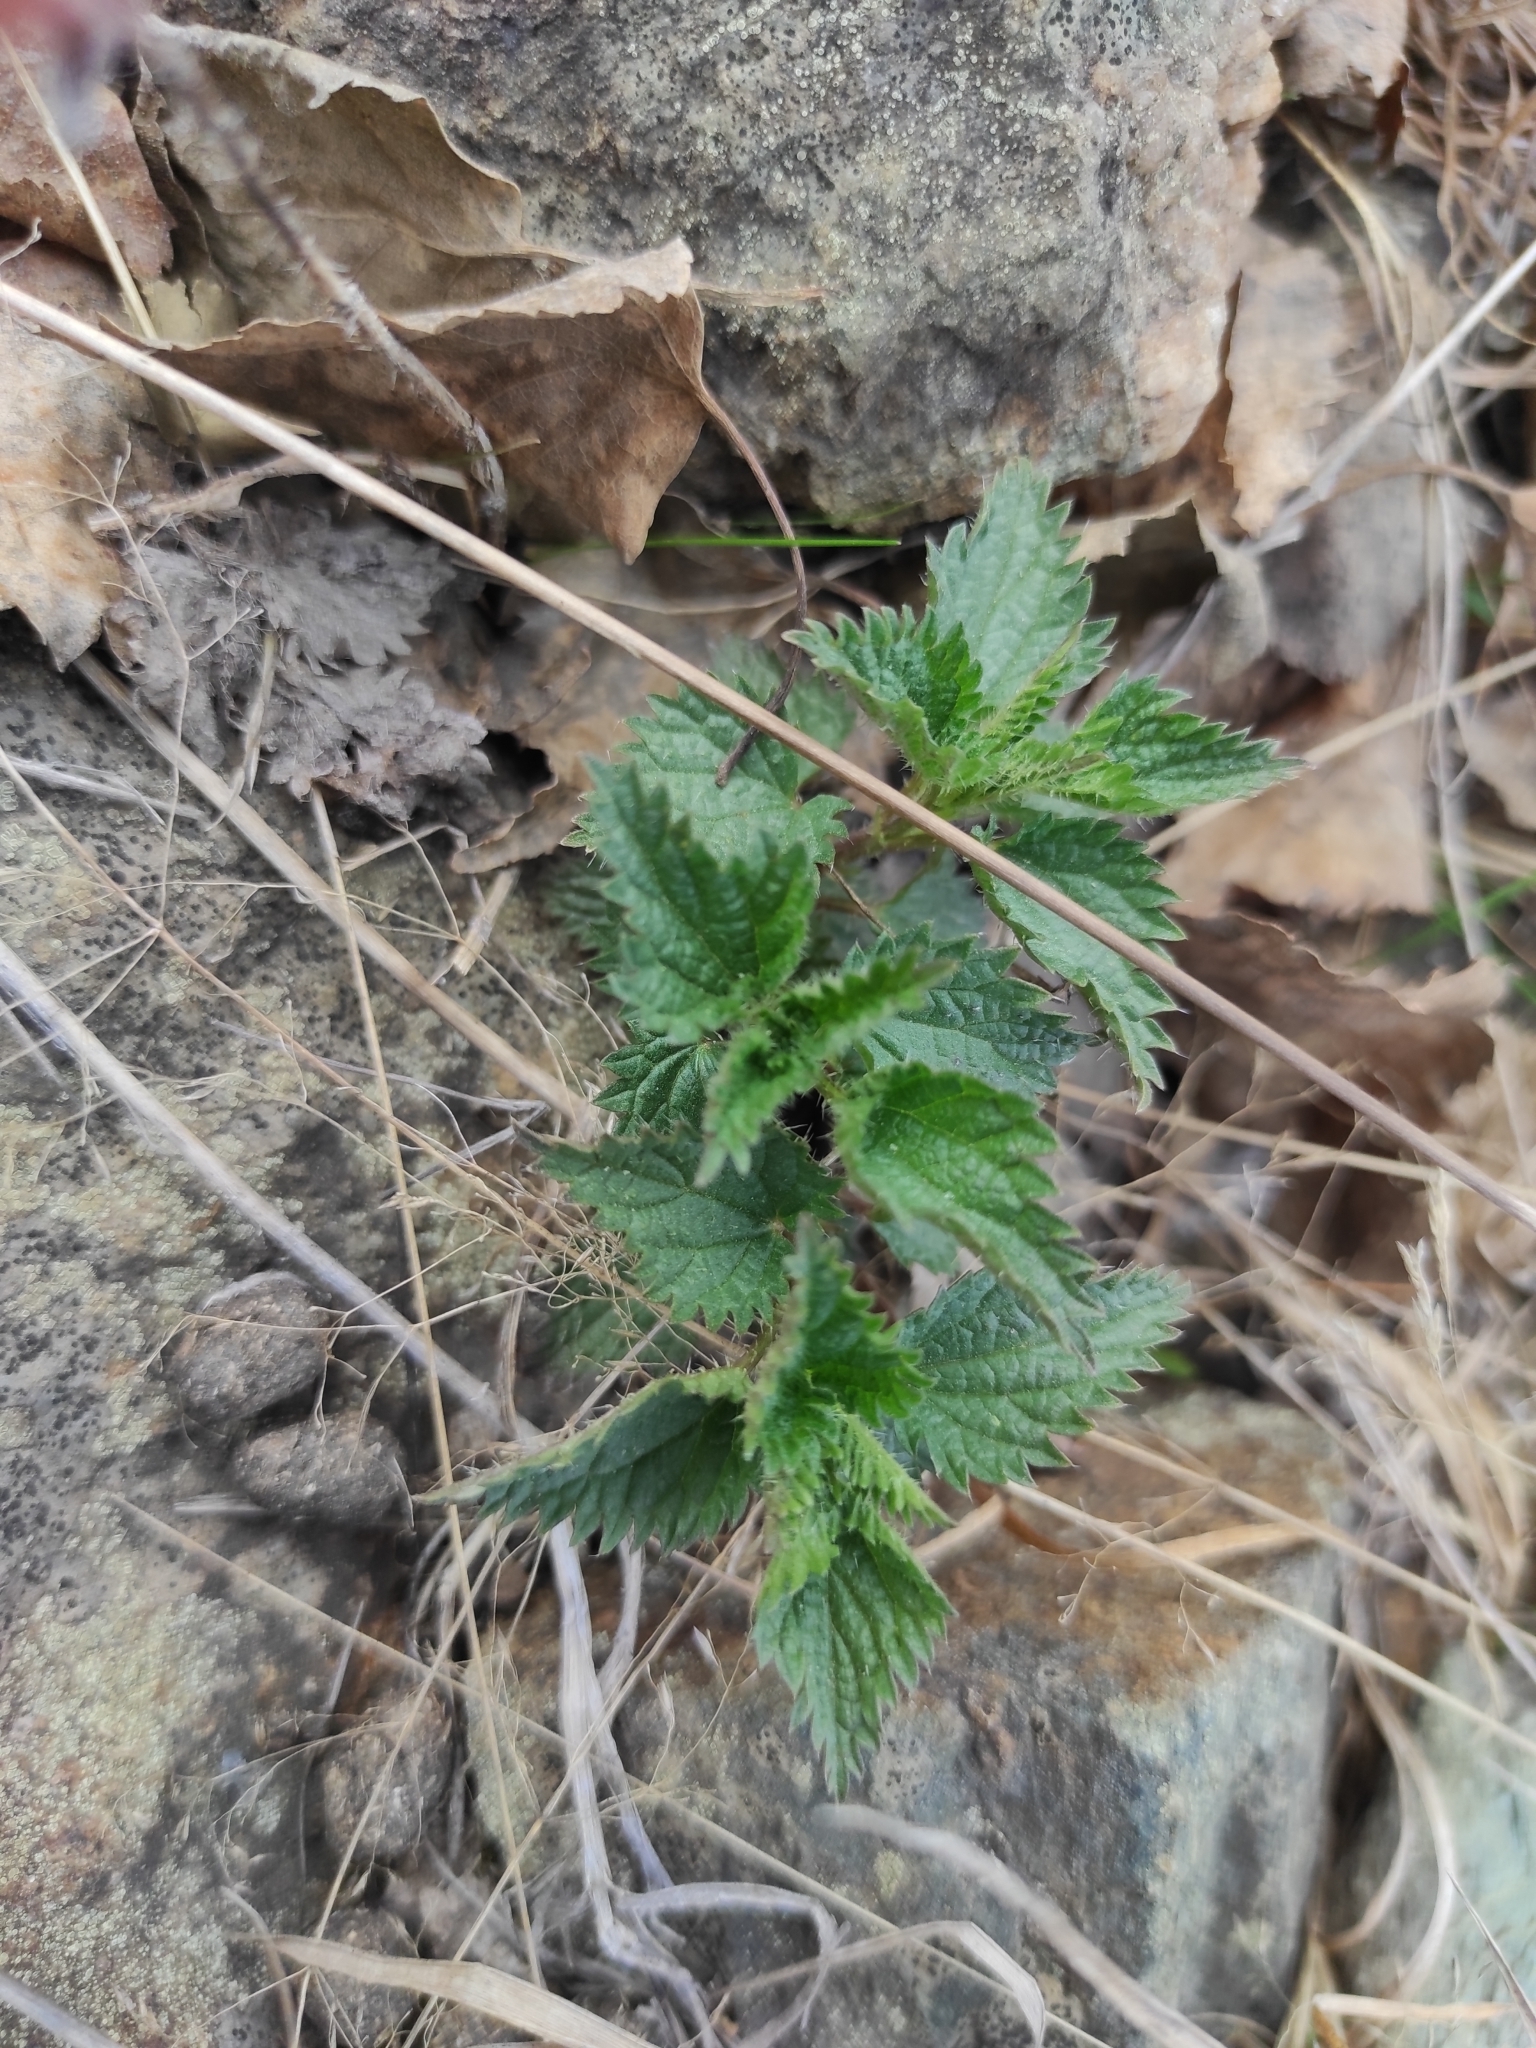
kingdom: Plantae
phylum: Tracheophyta
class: Magnoliopsida
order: Rosales
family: Urticaceae
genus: Urtica
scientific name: Urtica dioica
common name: Common nettle
